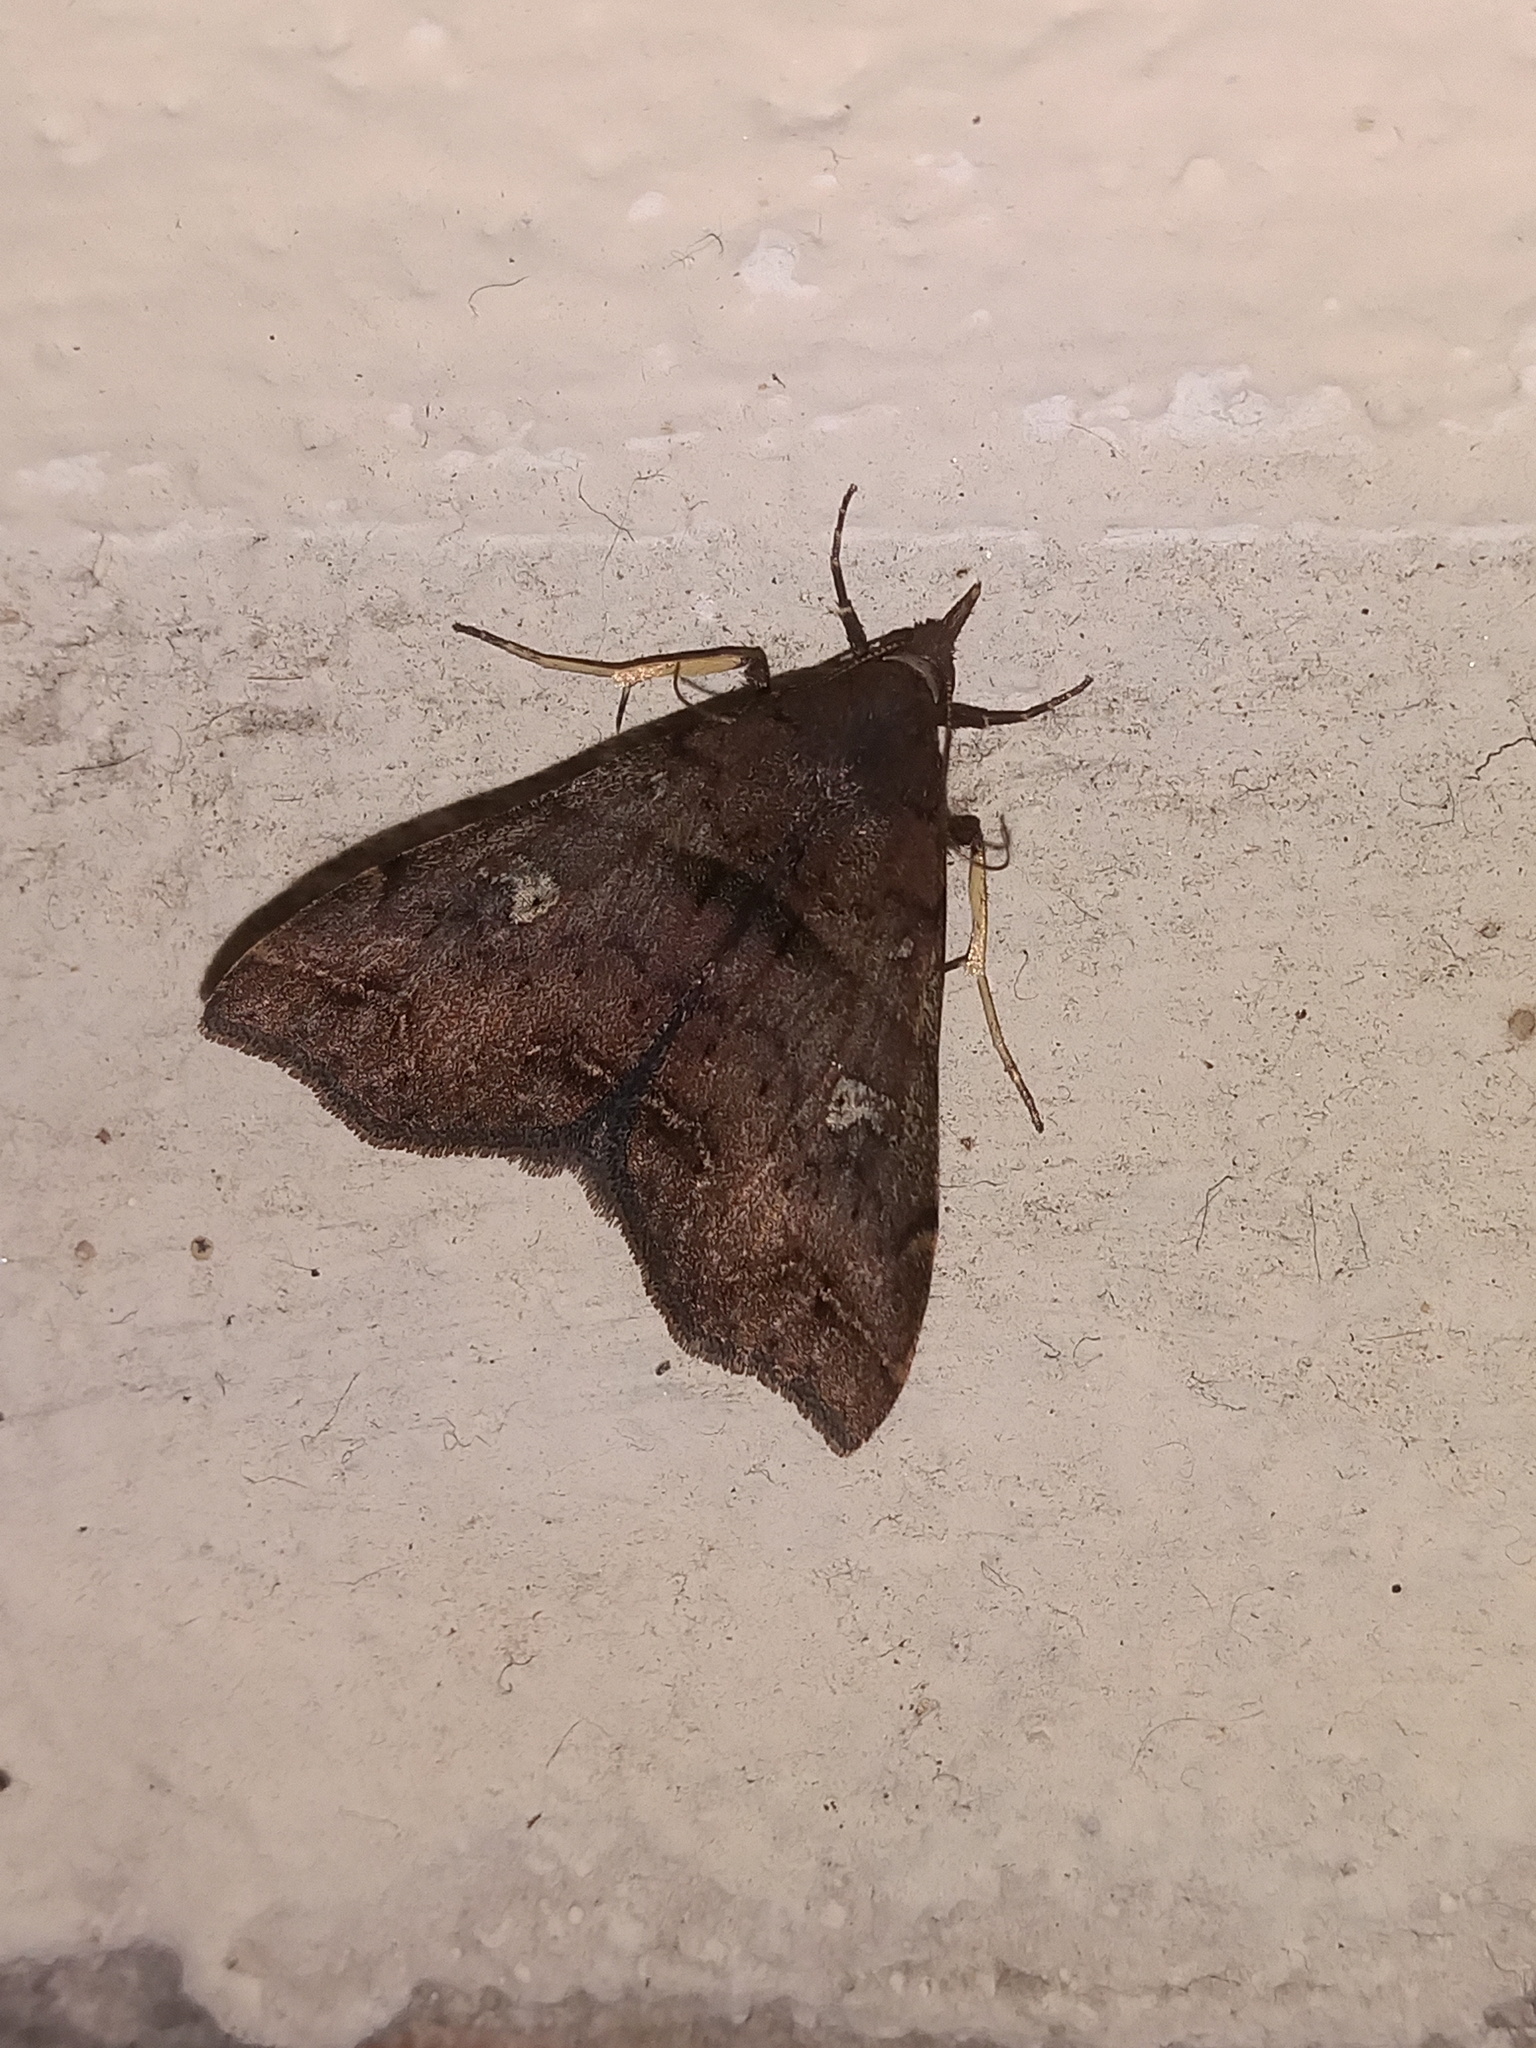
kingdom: Animalia
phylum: Arthropoda
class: Insecta
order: Lepidoptera
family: Erebidae
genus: Coscaga
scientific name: Coscaga picatalis
